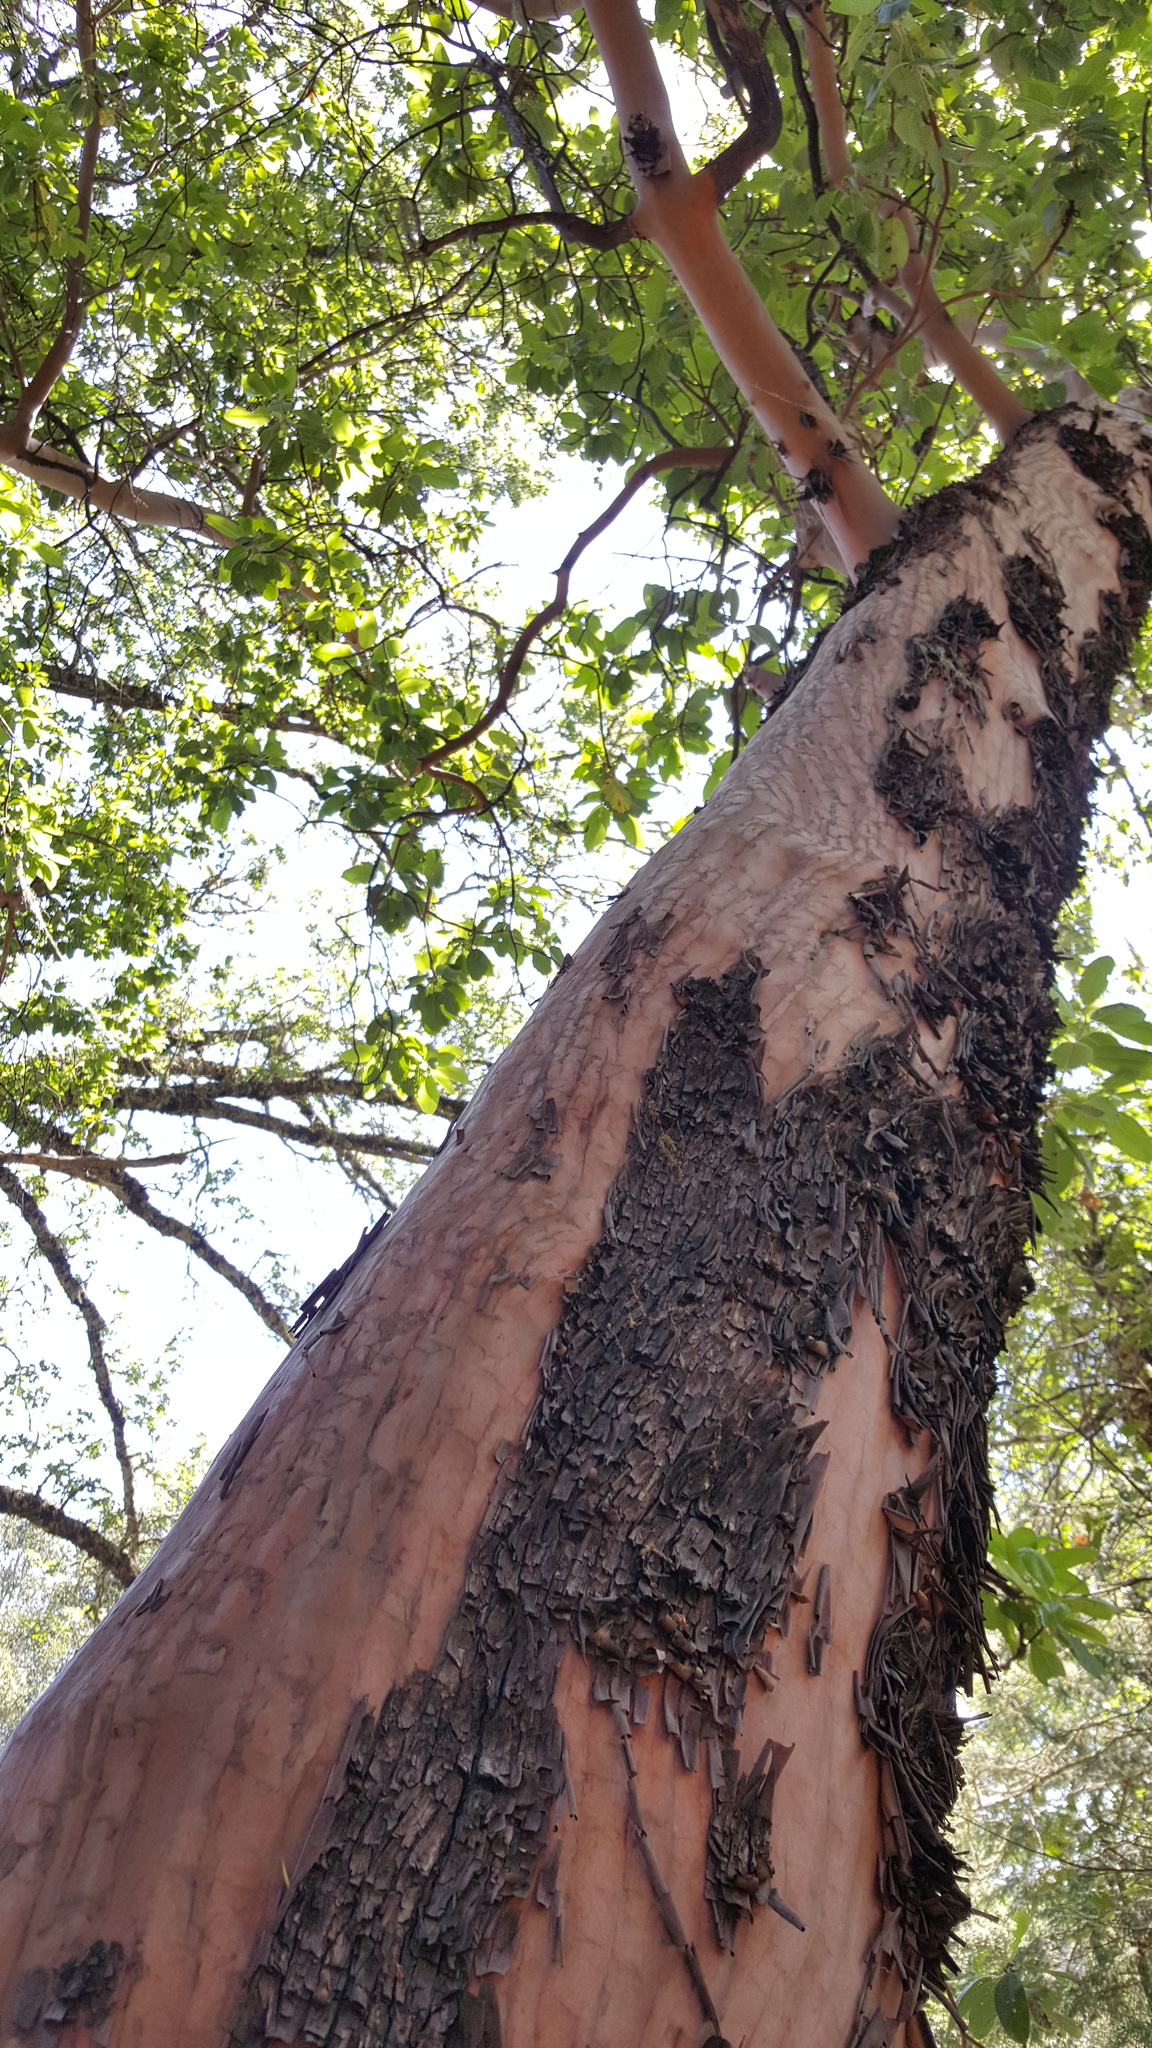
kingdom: Plantae
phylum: Tracheophyta
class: Magnoliopsida
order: Ericales
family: Ericaceae
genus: Arbutus
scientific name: Arbutus menziesii
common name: Pacific madrone
